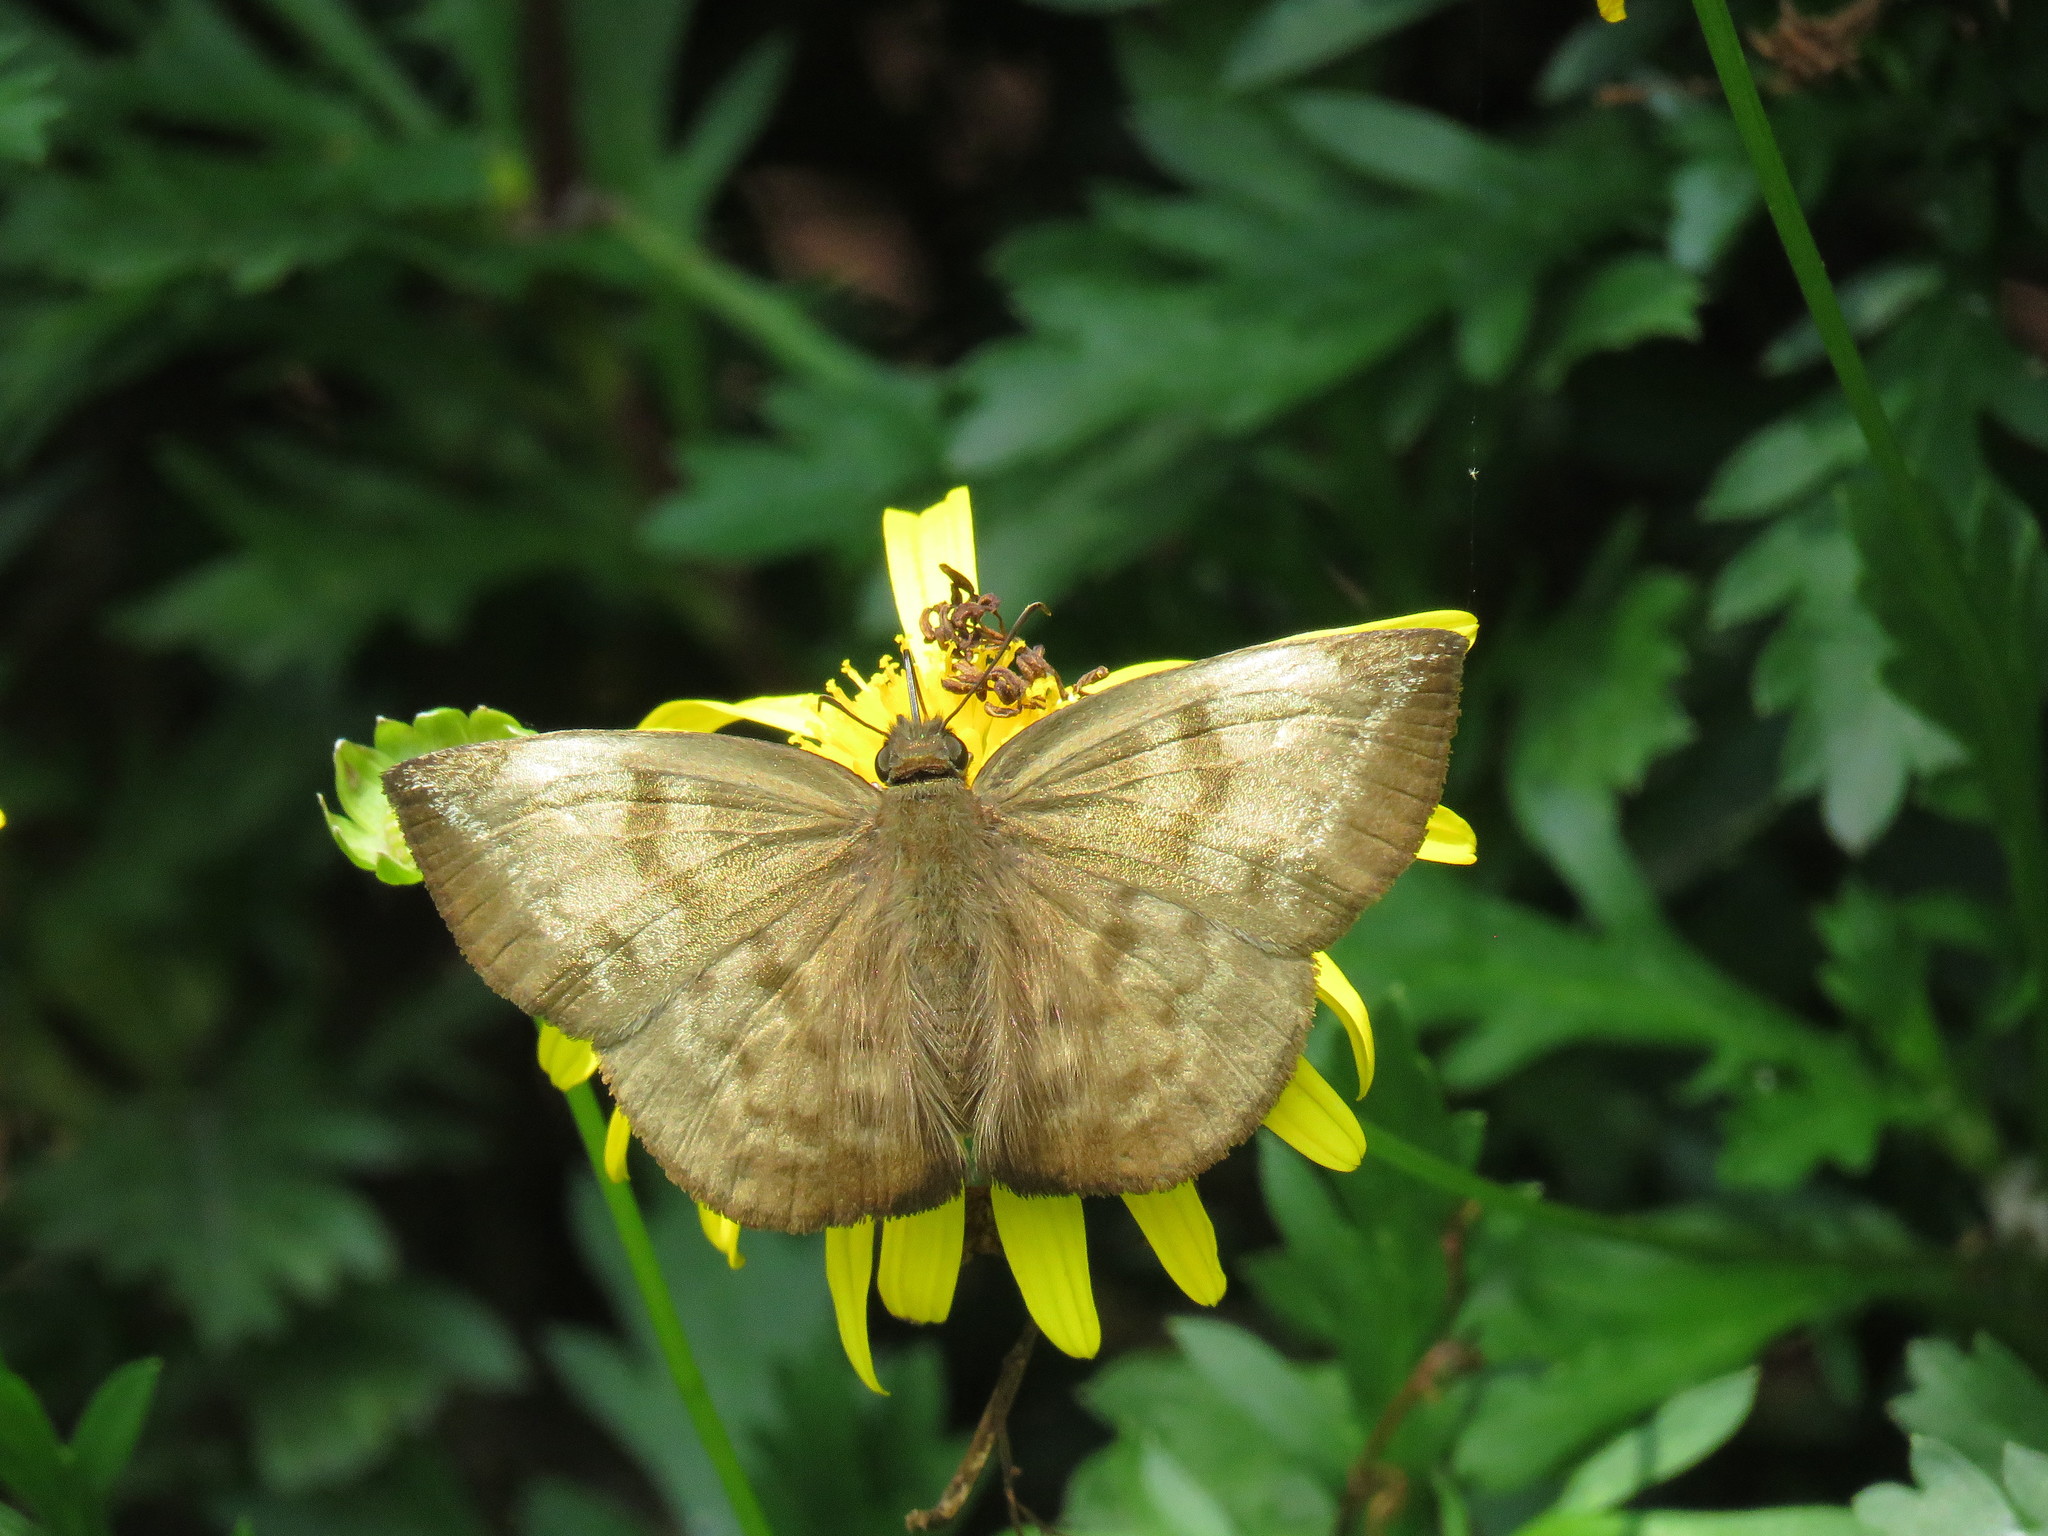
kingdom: Animalia
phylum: Arthropoda
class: Insecta
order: Lepidoptera
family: Hesperiidae
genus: Achlyodes
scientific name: Achlyodes pallida
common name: Pale sicklewing
